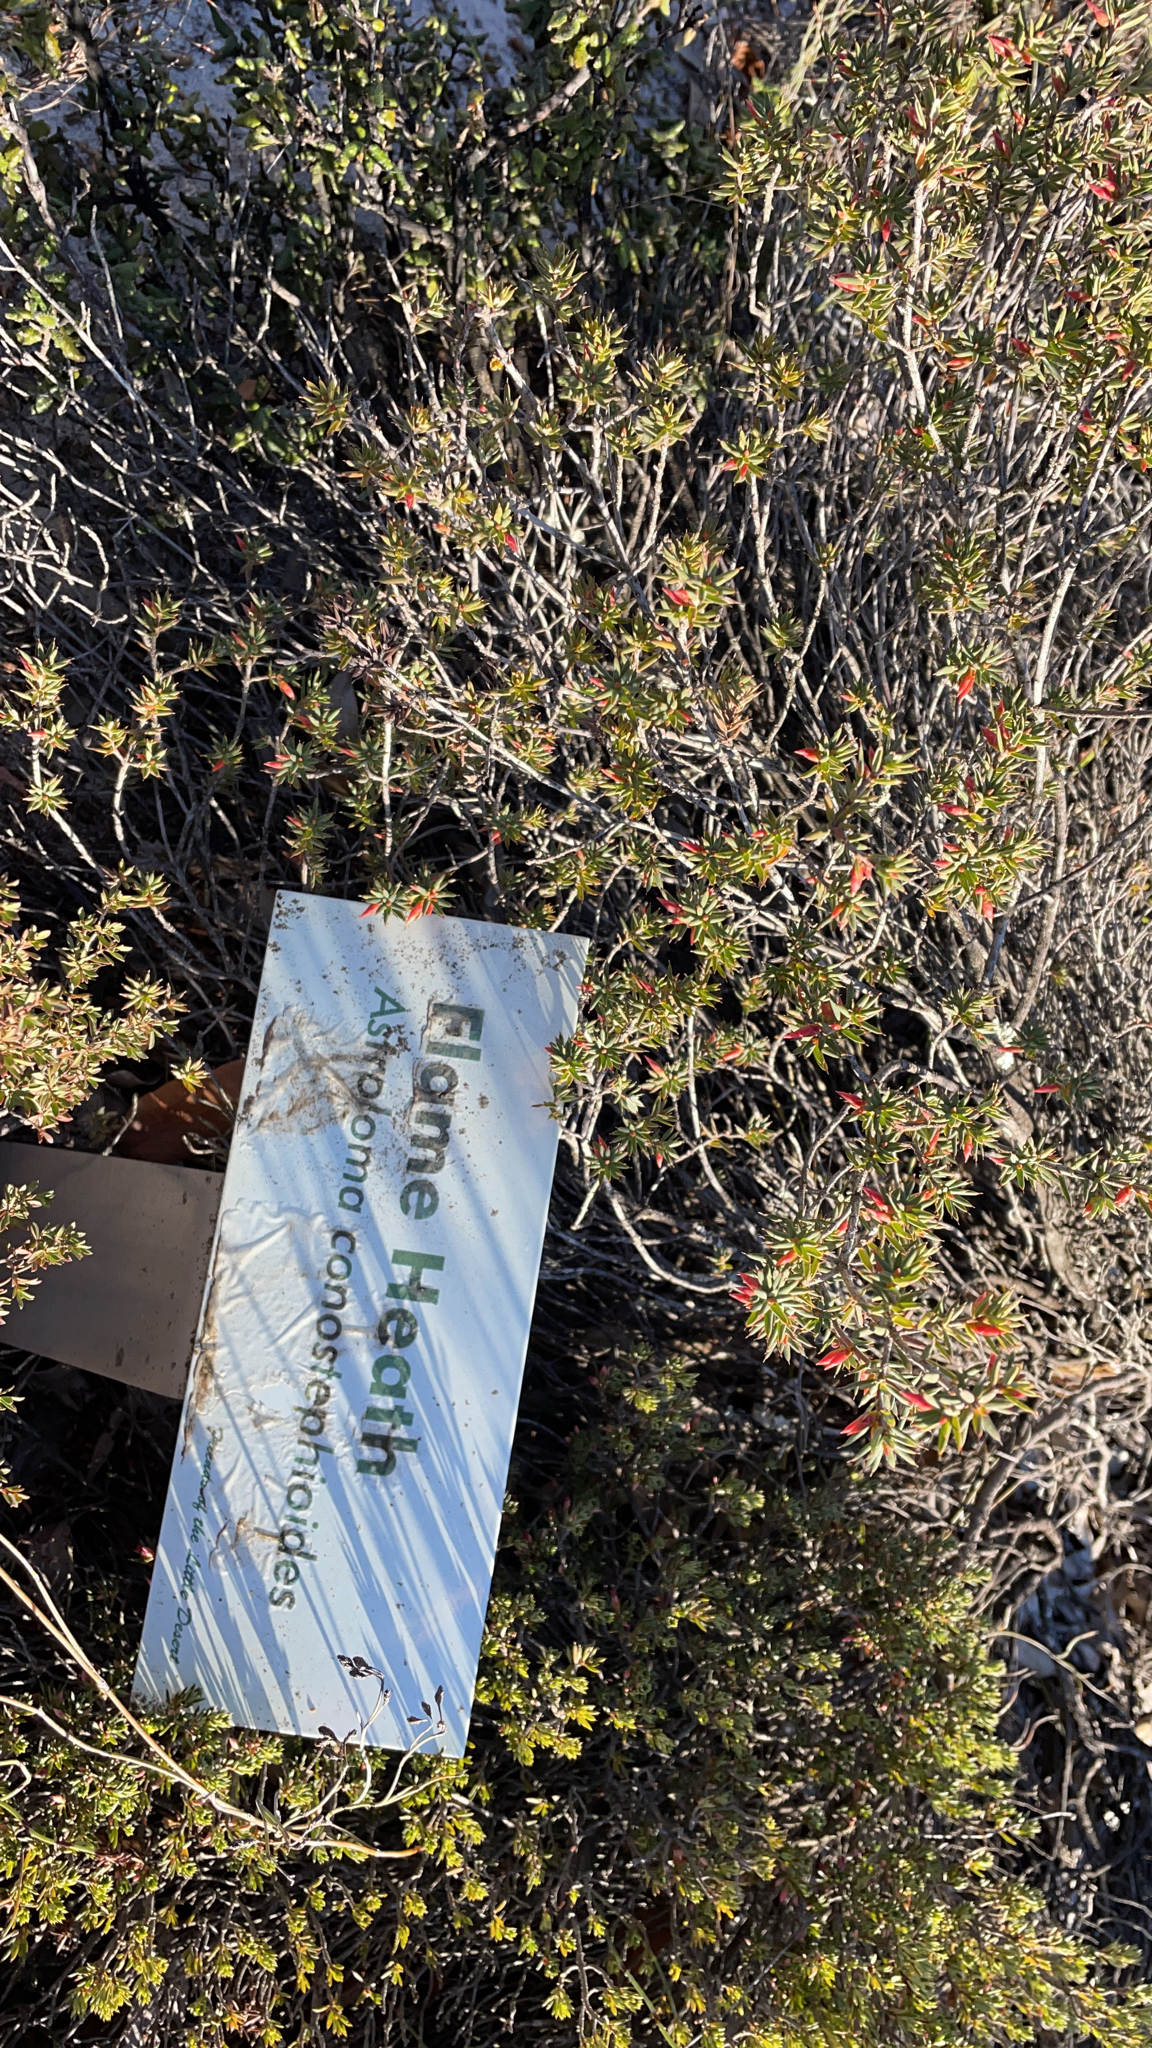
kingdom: Plantae
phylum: Tracheophyta
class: Magnoliopsida
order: Ericales
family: Ericaceae
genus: Stenanthera
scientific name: Stenanthera conostephioides
